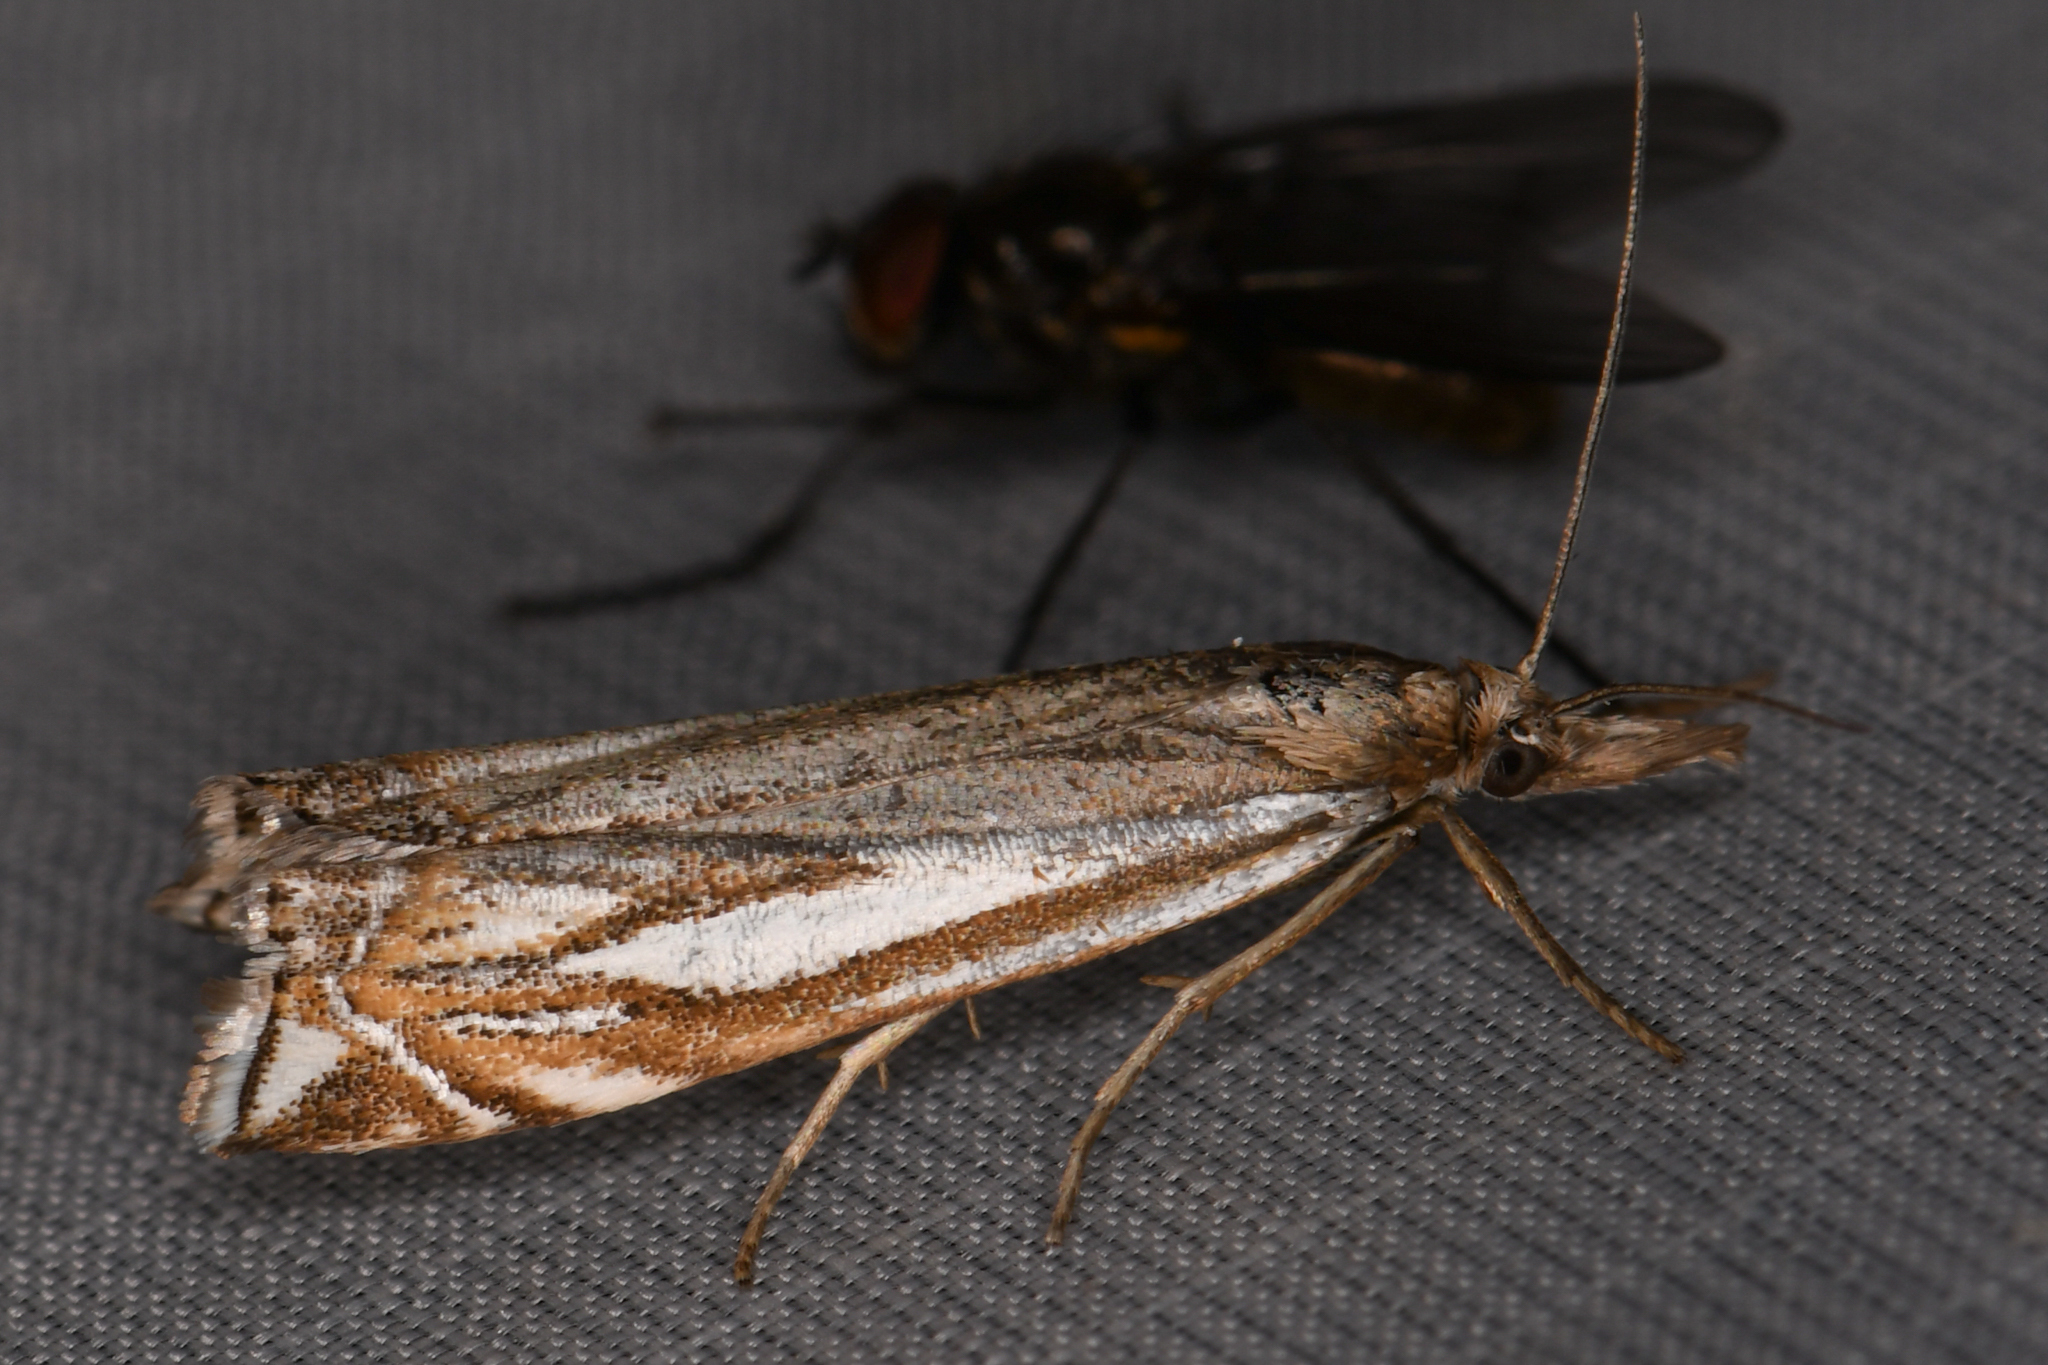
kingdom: Animalia
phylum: Arthropoda
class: Insecta
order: Lepidoptera
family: Crambidae
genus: Crambus
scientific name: Crambus whitmerellus
